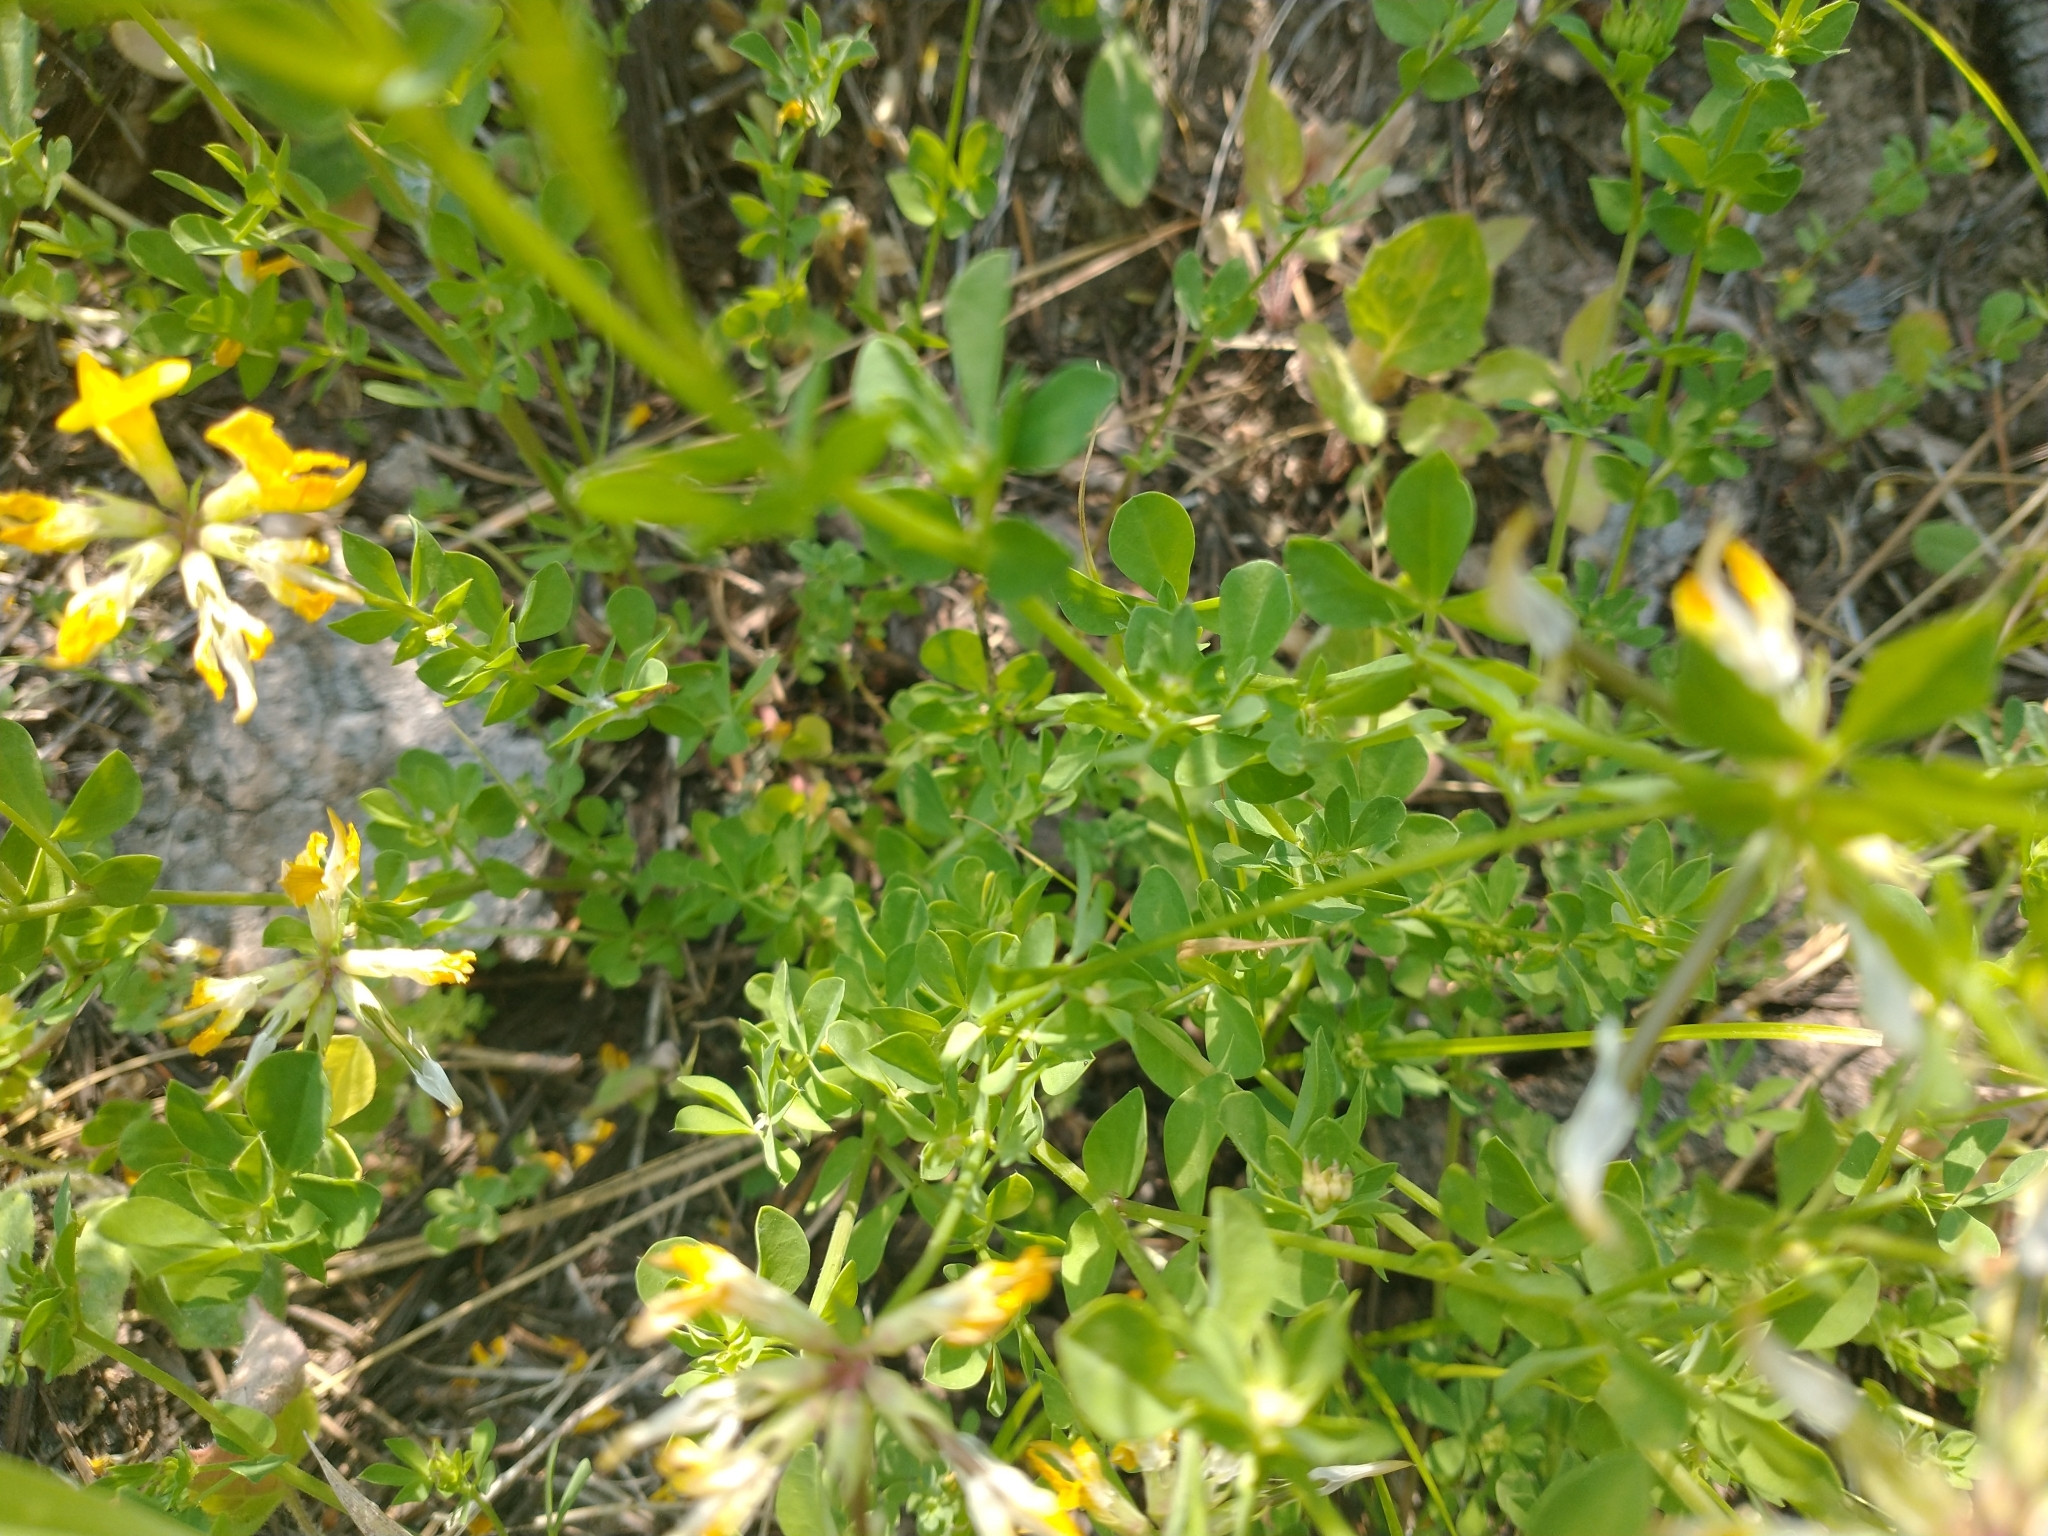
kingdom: Plantae
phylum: Tracheophyta
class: Magnoliopsida
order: Fabales
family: Fabaceae
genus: Lotus
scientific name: Lotus corniculatus
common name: Common bird's-foot-trefoil
